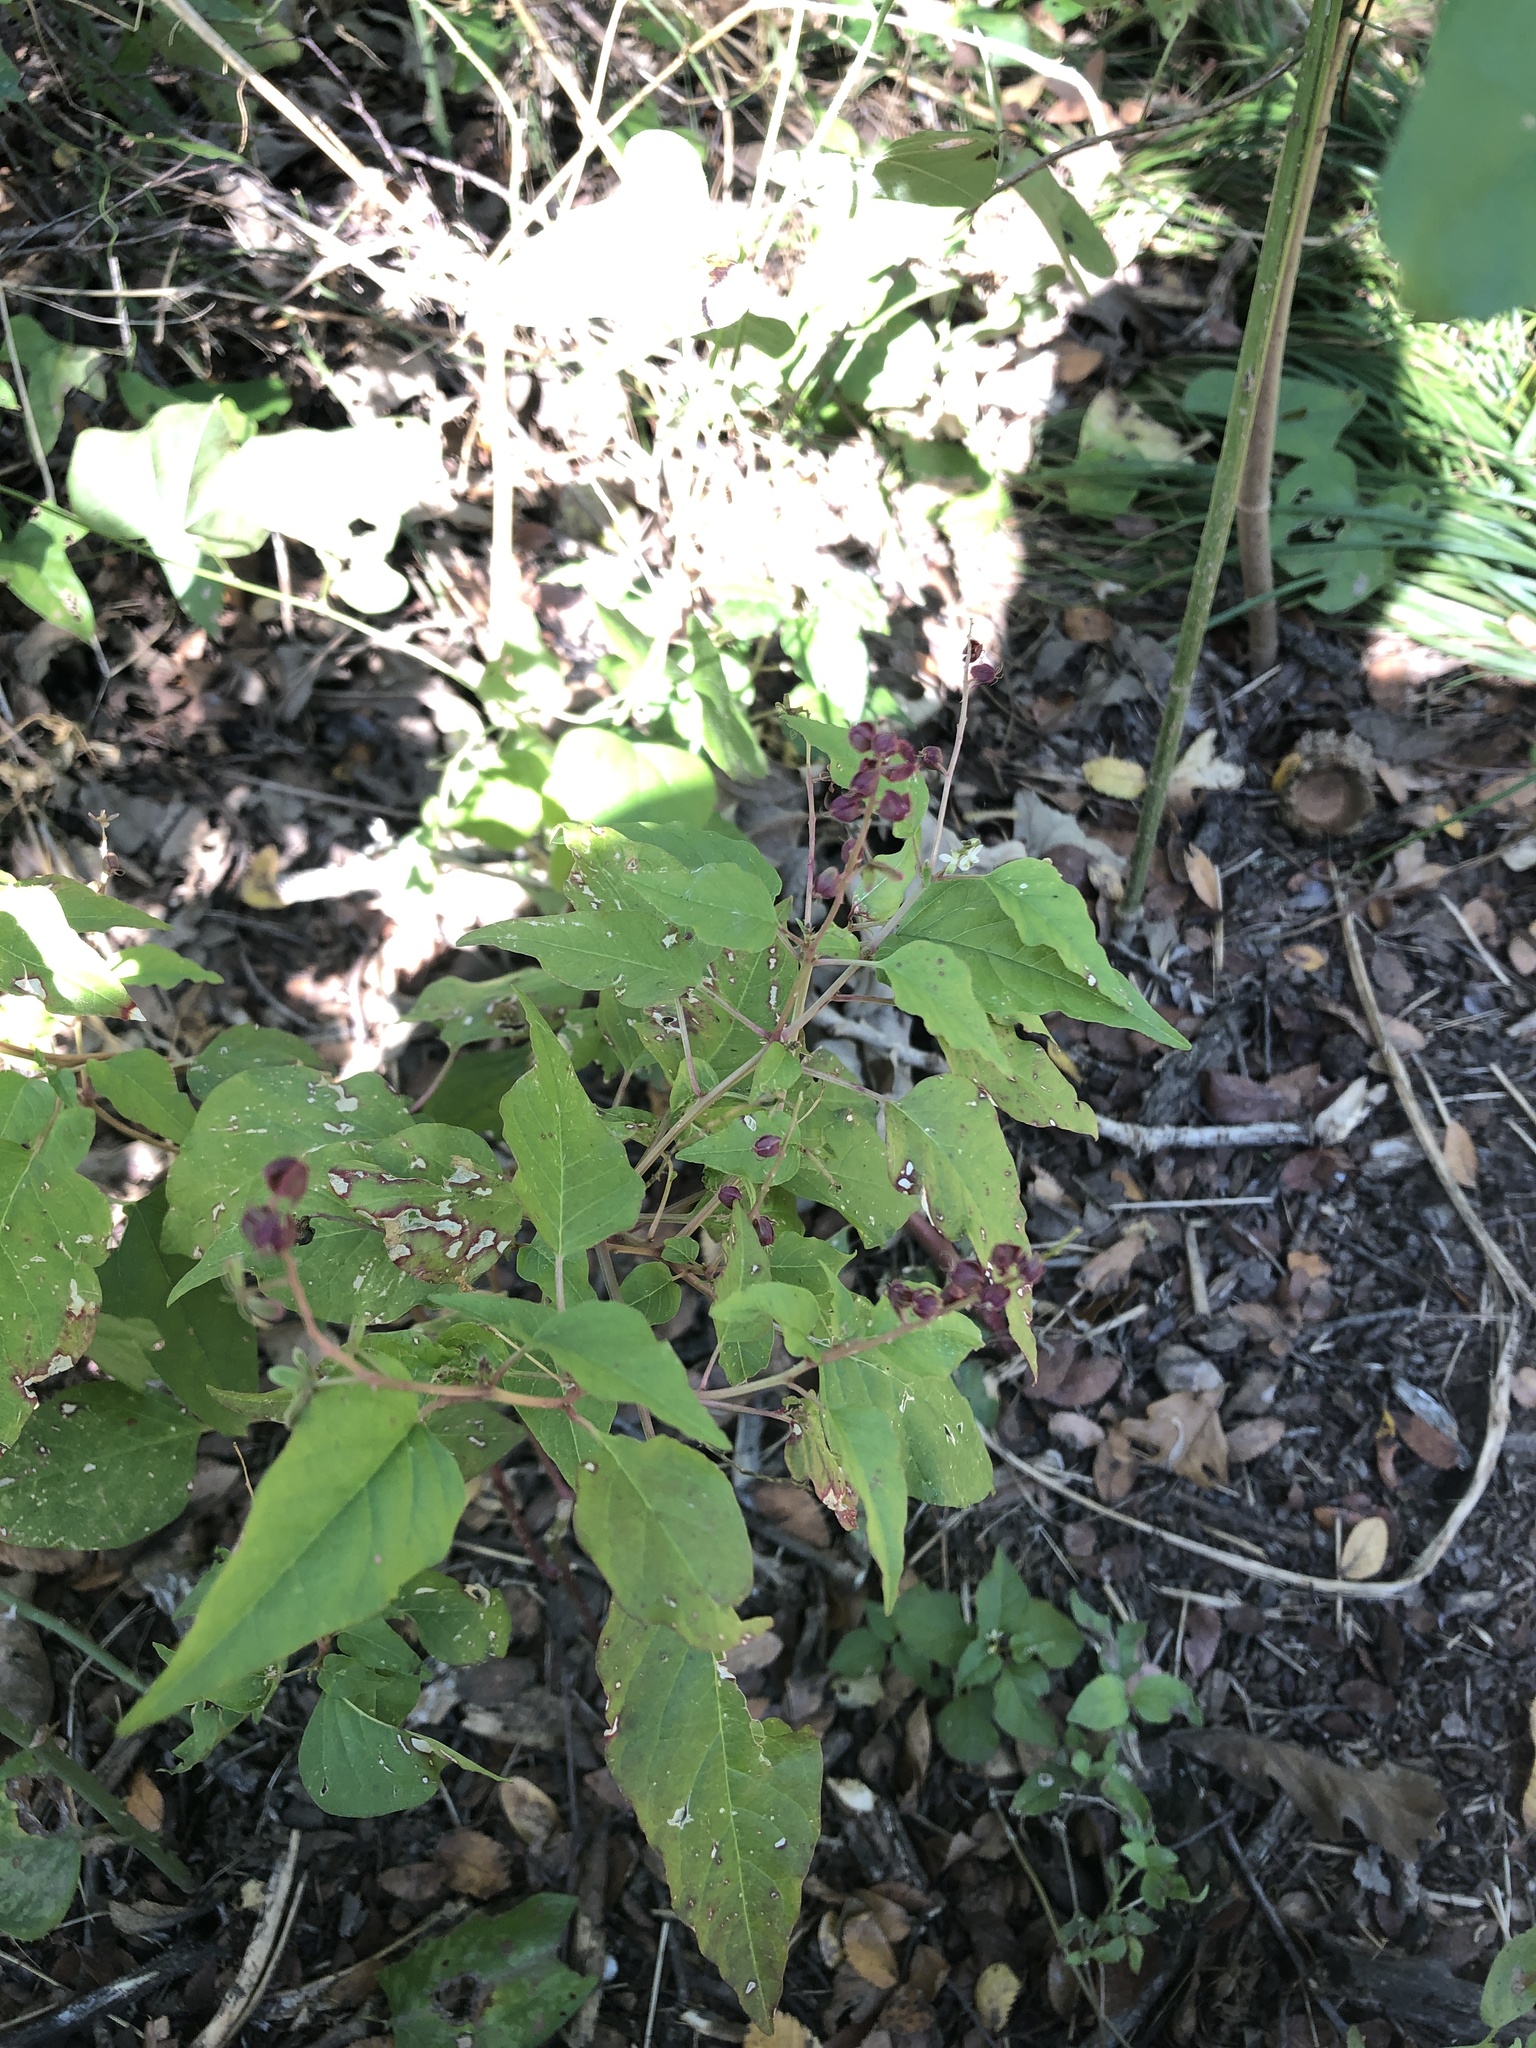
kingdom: Plantae
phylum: Tracheophyta
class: Magnoliopsida
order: Caryophyllales
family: Phytolaccaceae
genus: Rivina
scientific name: Rivina humilis
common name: Rougeplant
